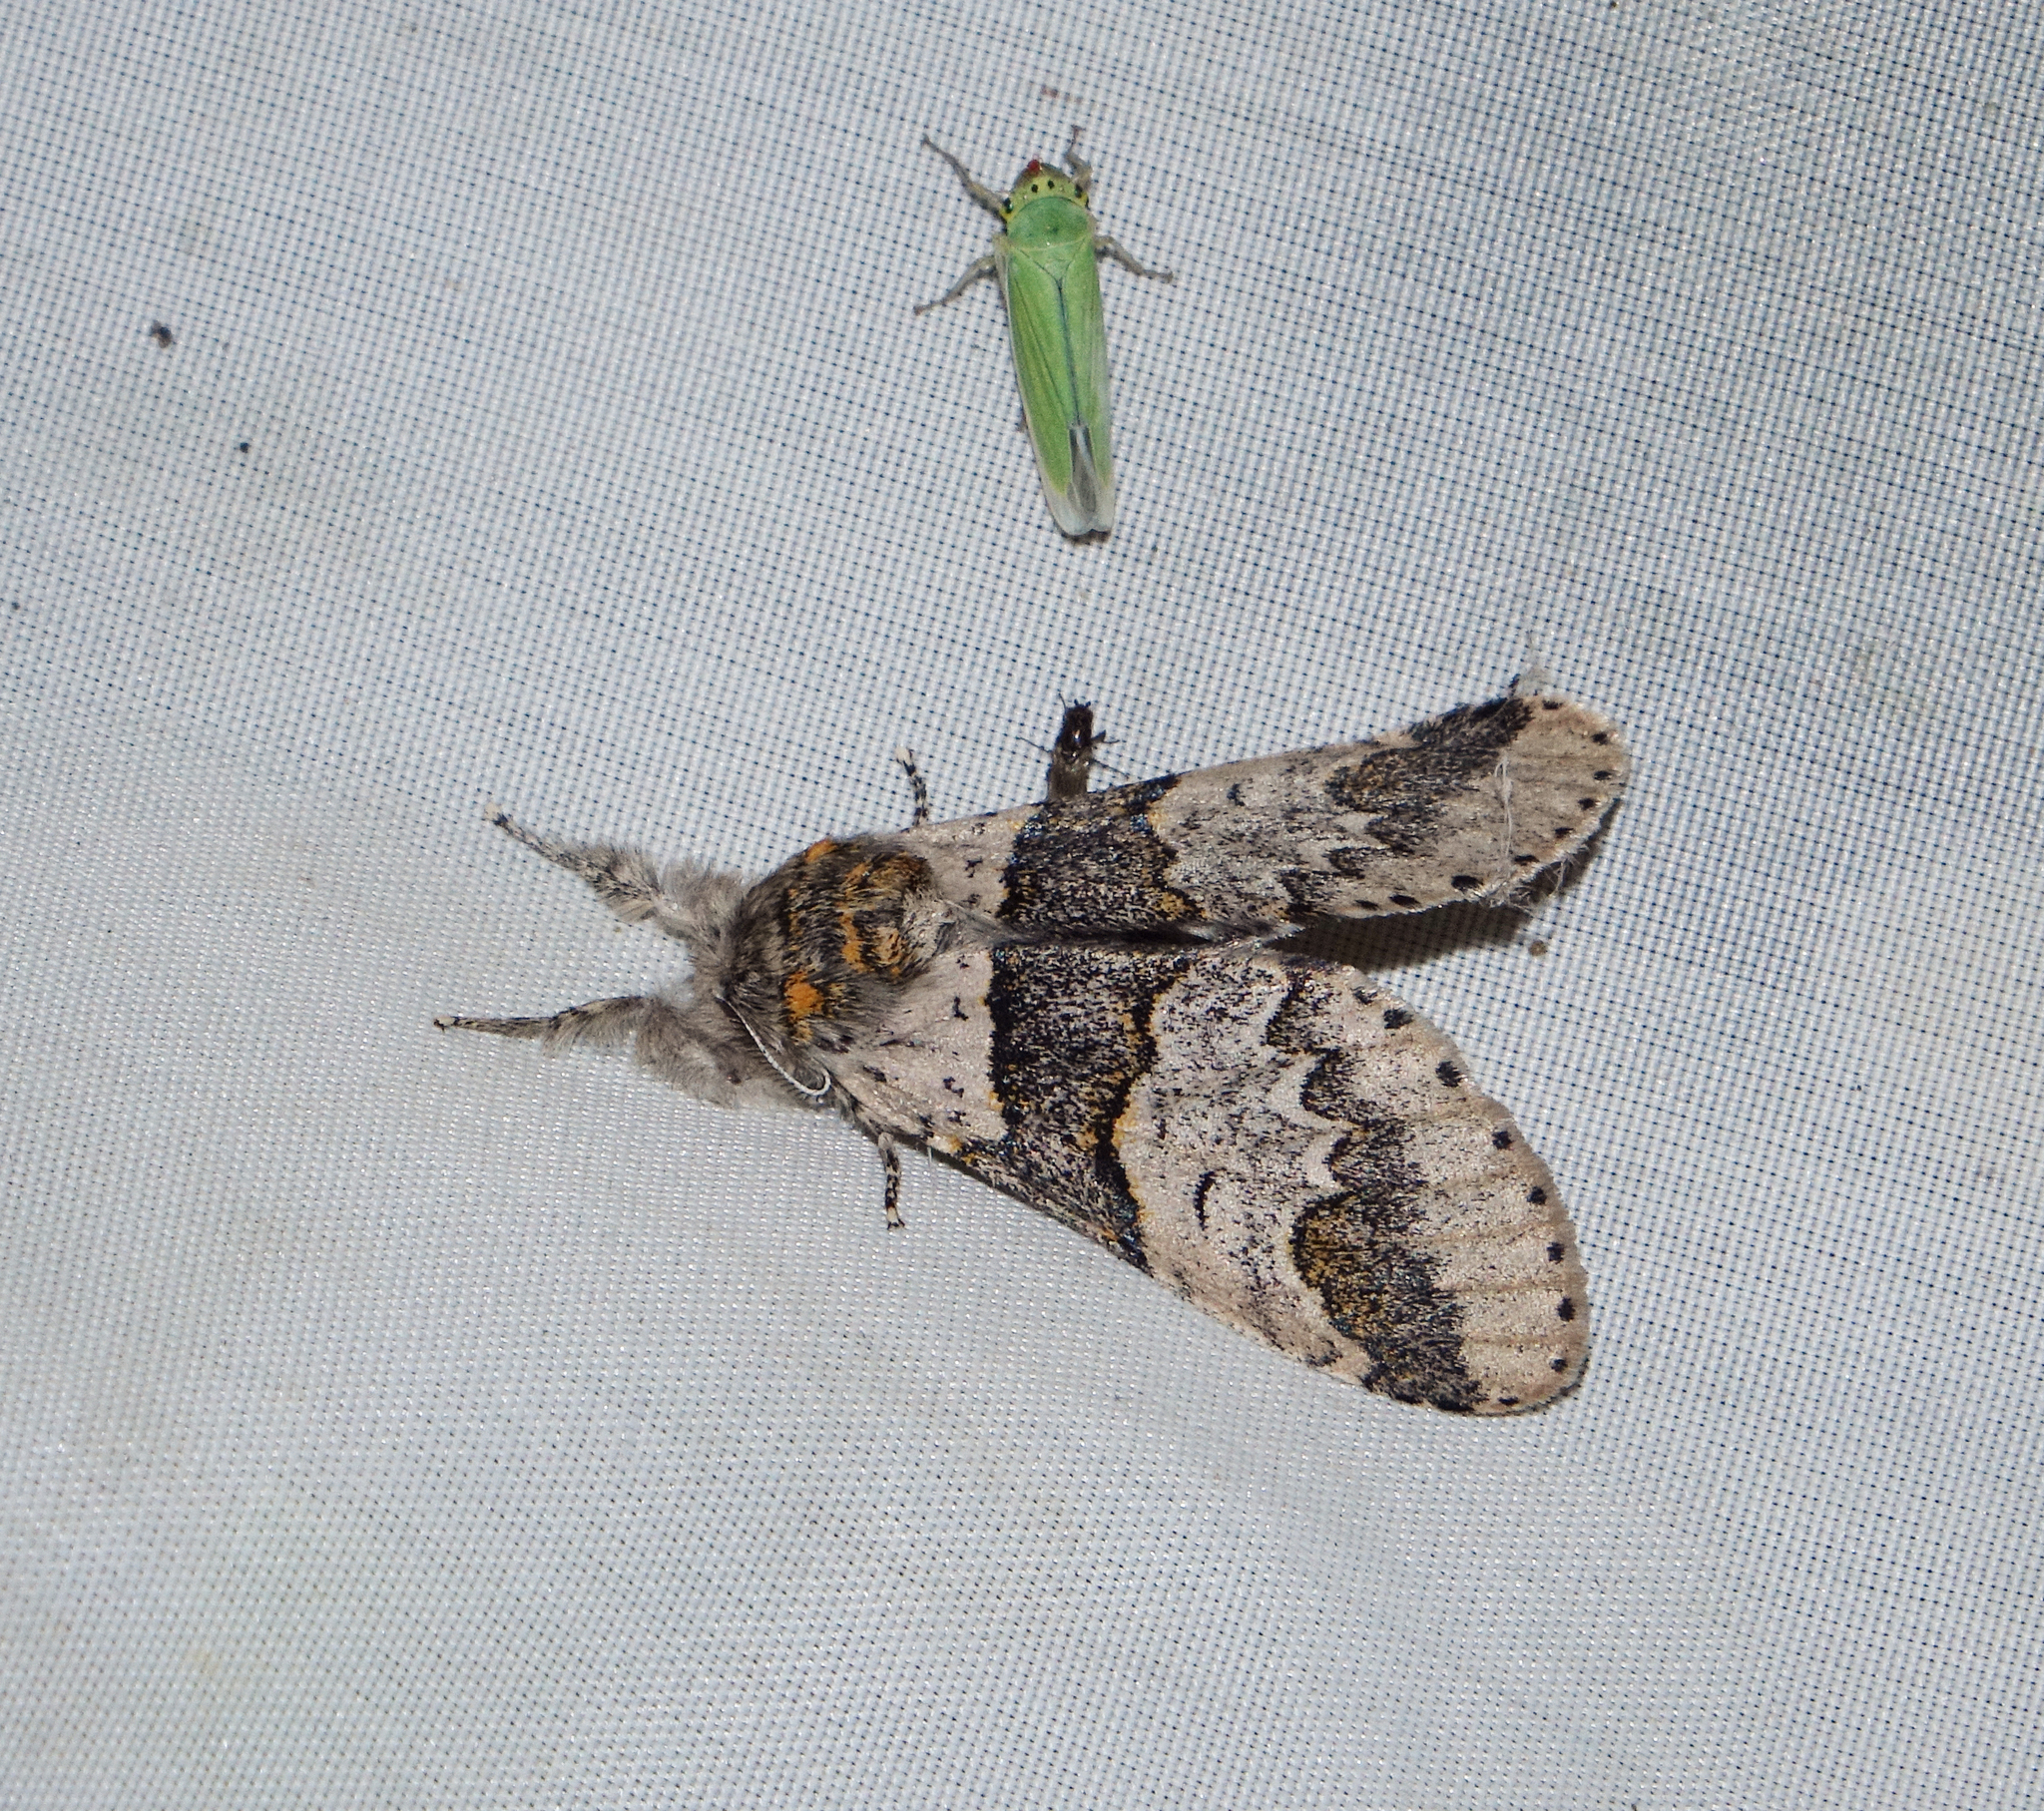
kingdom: Animalia
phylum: Arthropoda
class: Insecta
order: Lepidoptera
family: Notodontidae
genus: Furcula
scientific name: Furcula furcula
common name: Sallow kitten
